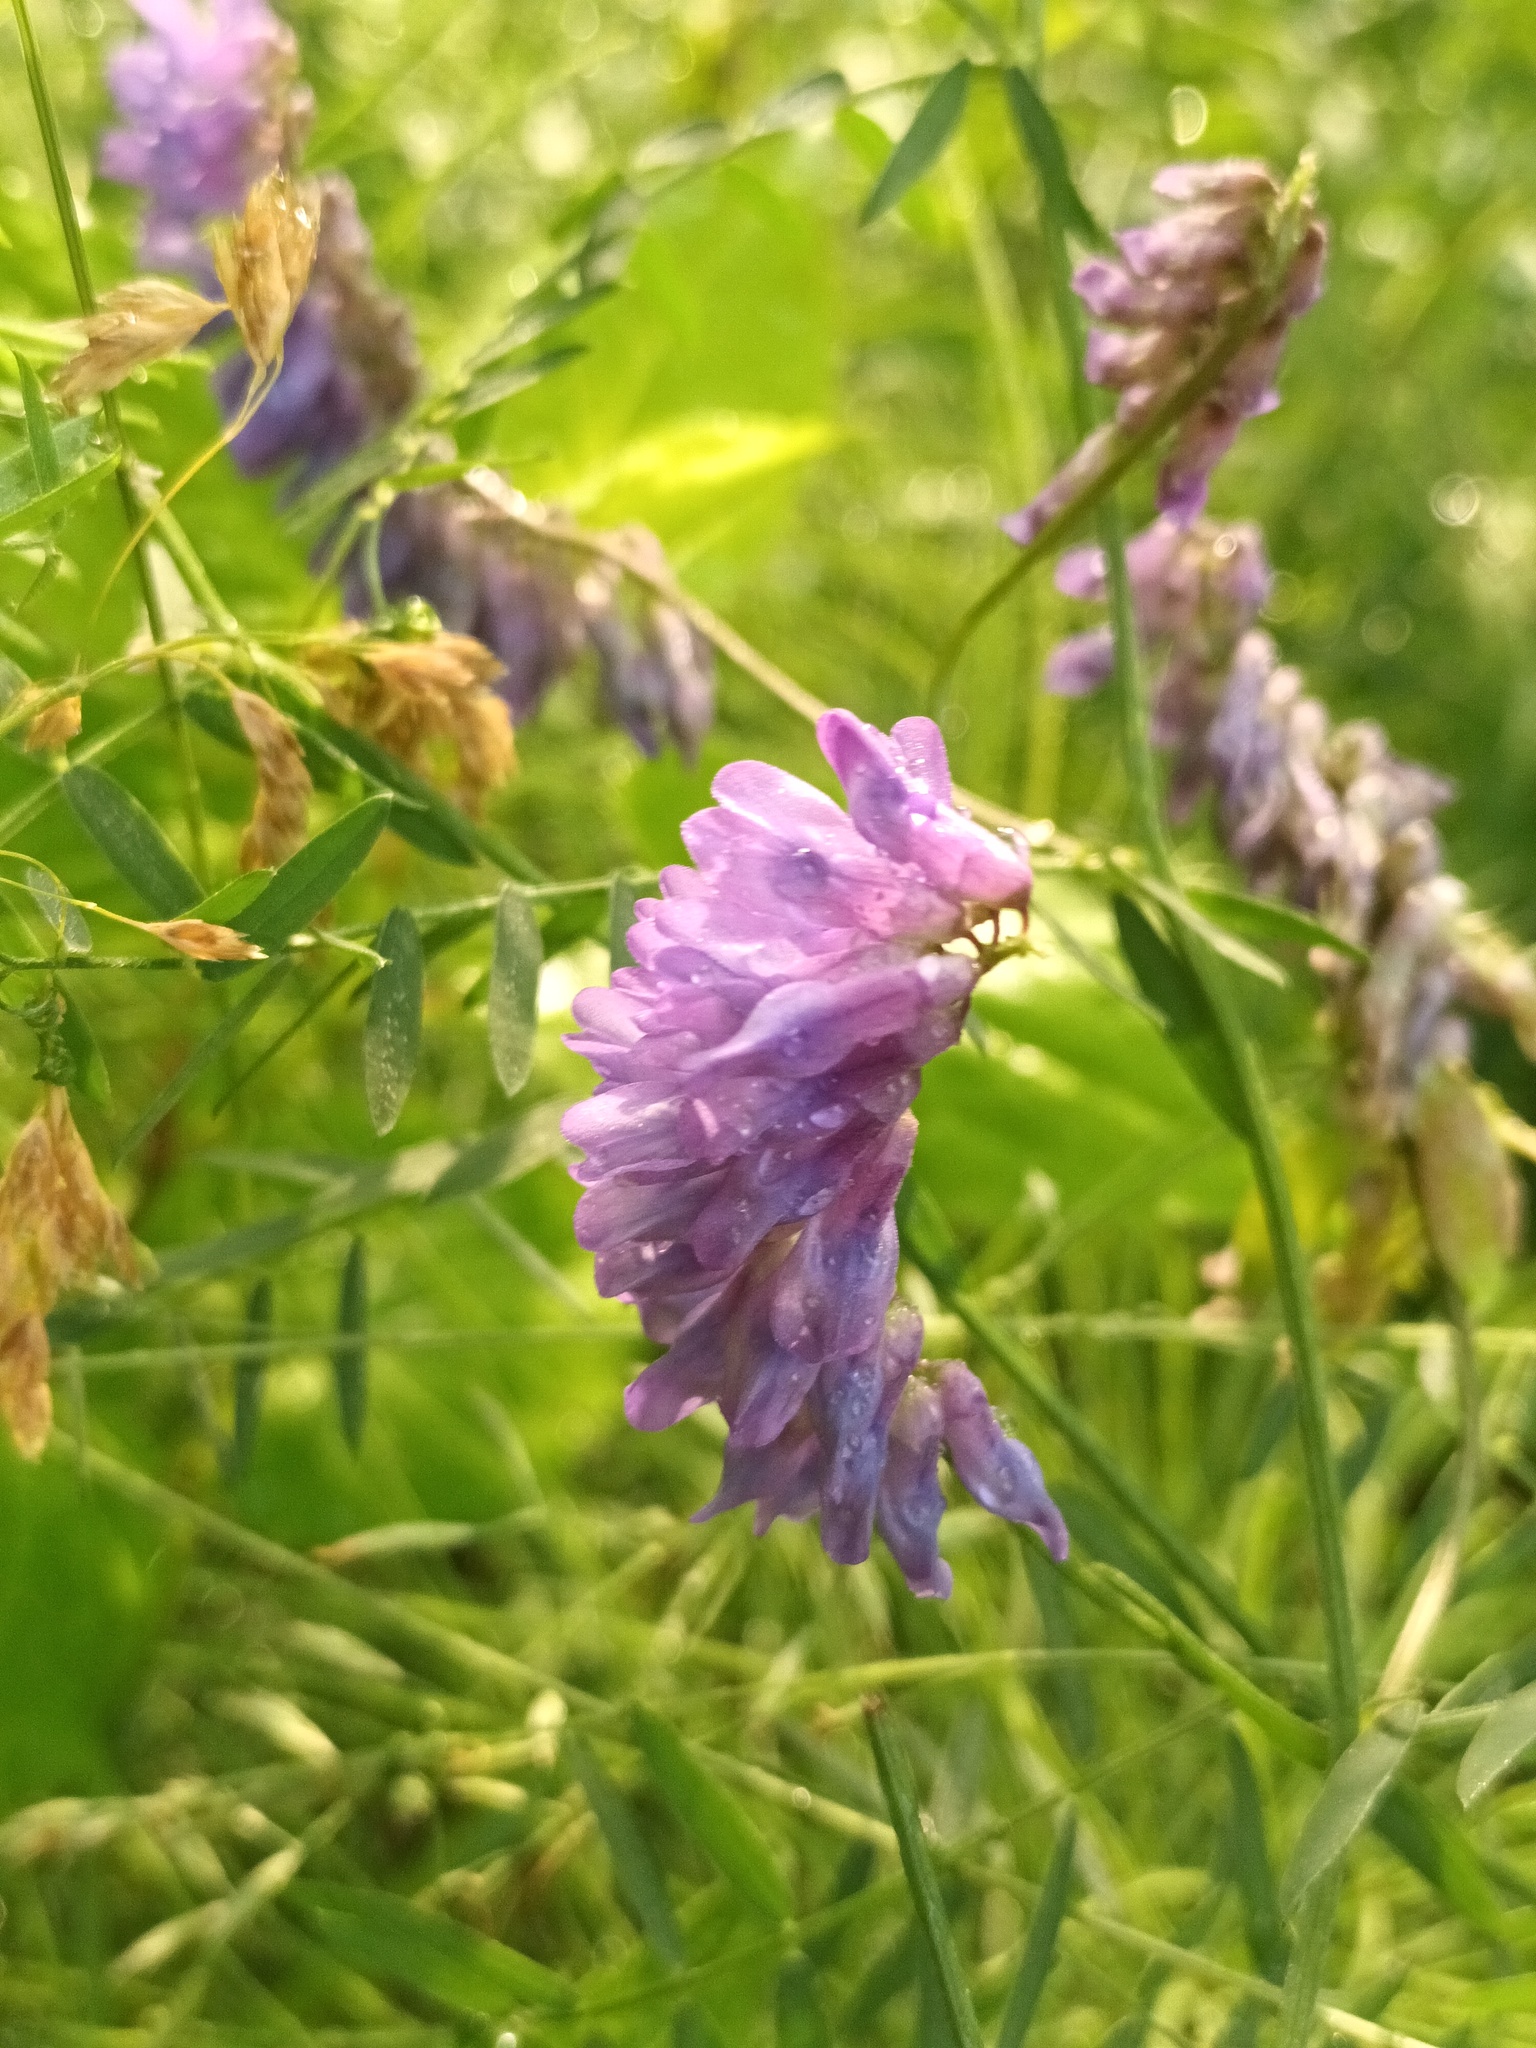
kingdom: Plantae
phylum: Tracheophyta
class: Magnoliopsida
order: Fabales
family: Fabaceae
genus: Vicia
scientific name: Vicia cracca
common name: Bird vetch
